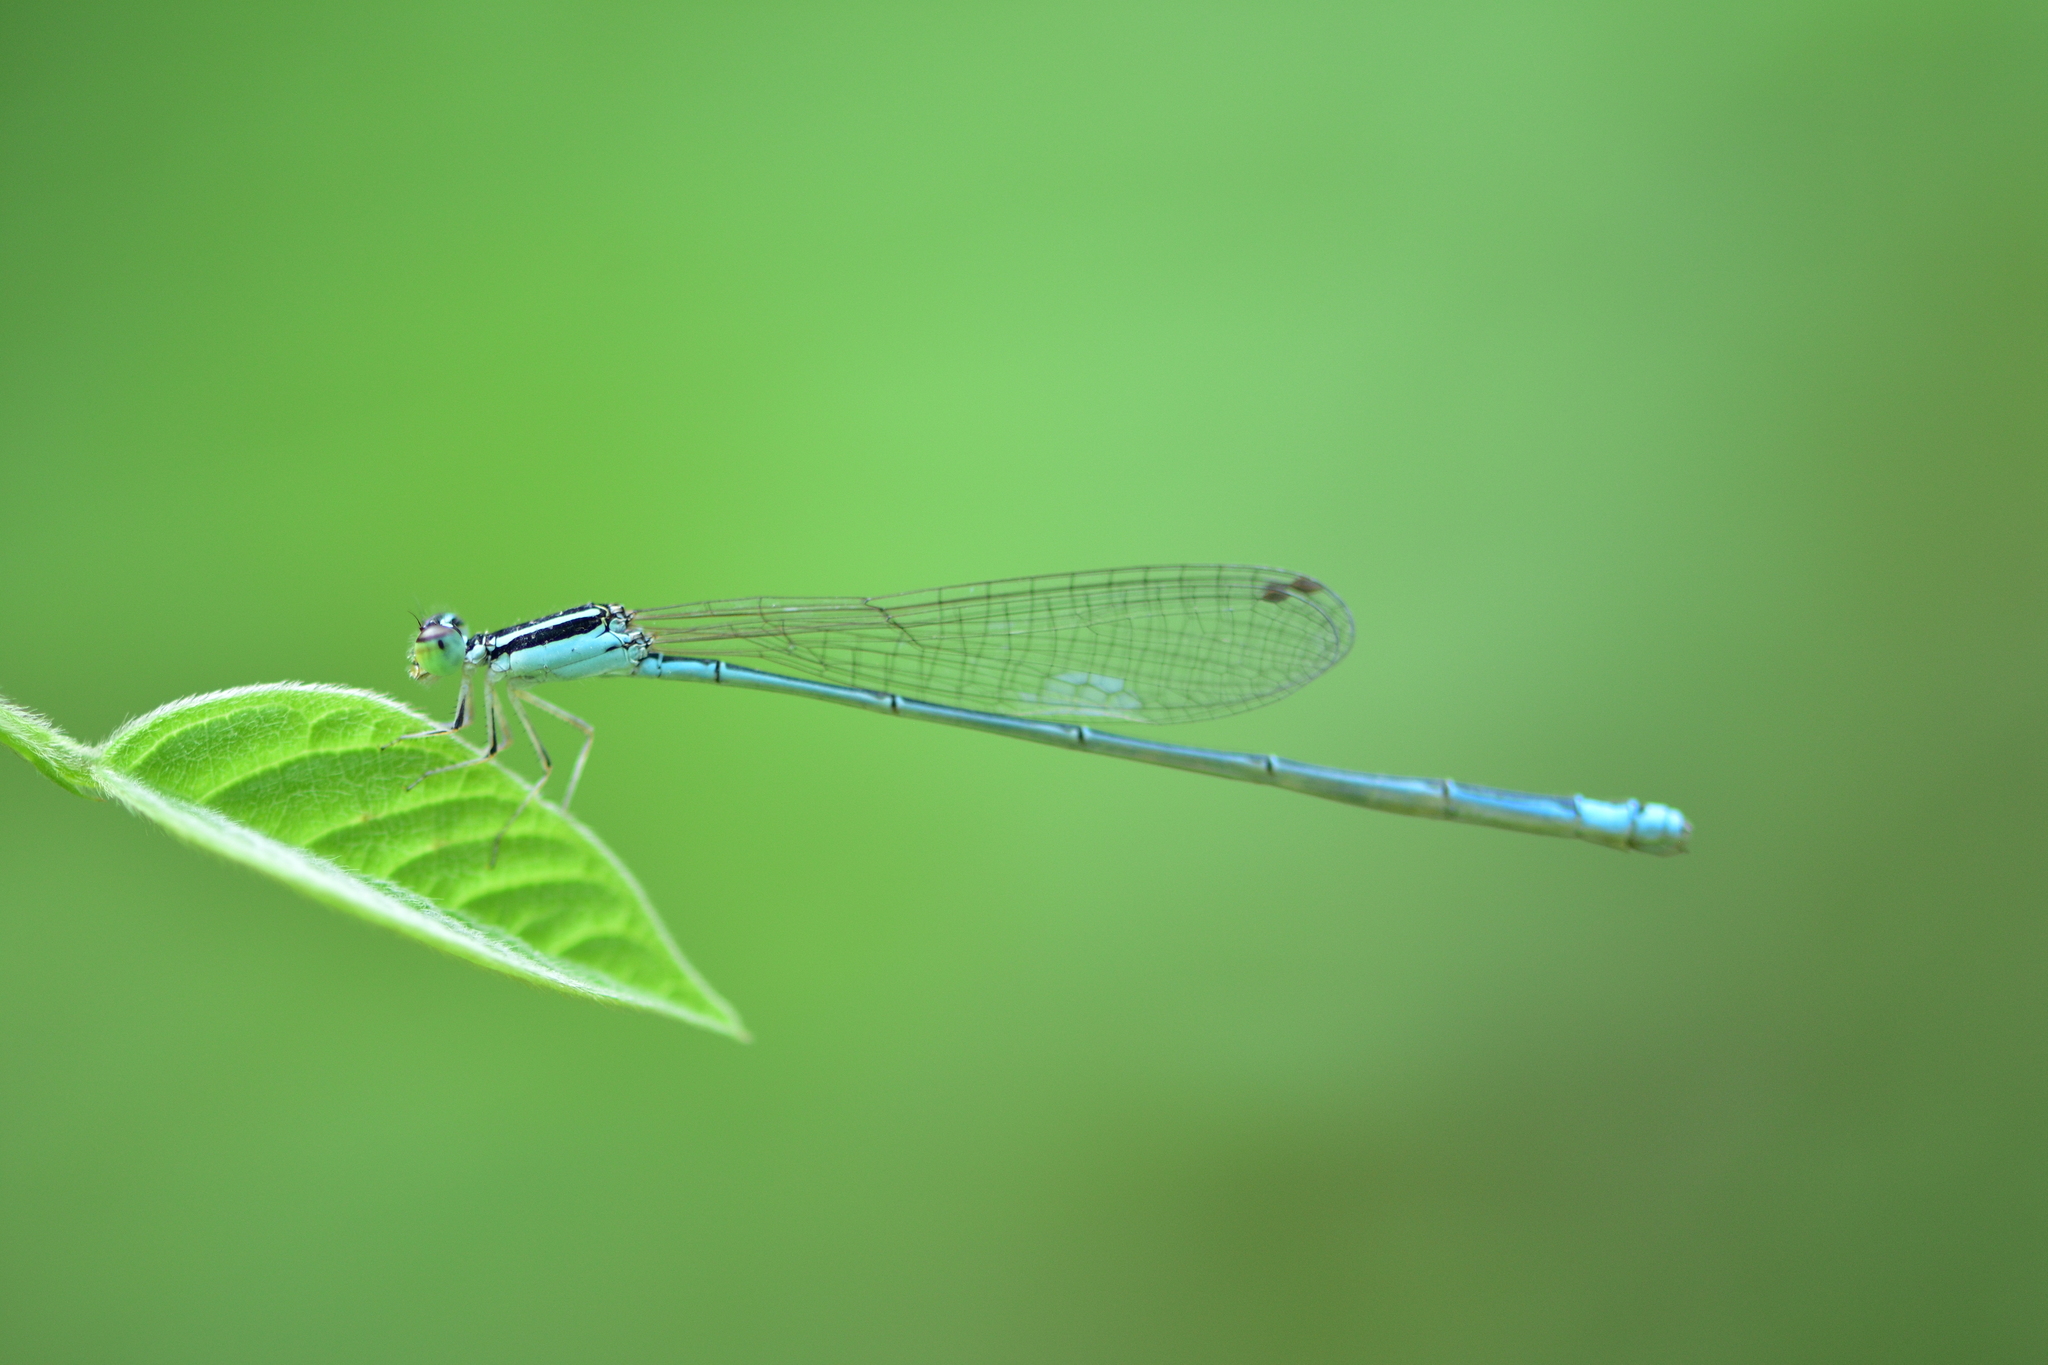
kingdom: Animalia
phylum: Arthropoda
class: Insecta
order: Odonata
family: Coenagrionidae
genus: Aciagrion
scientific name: Aciagrion occidentale
